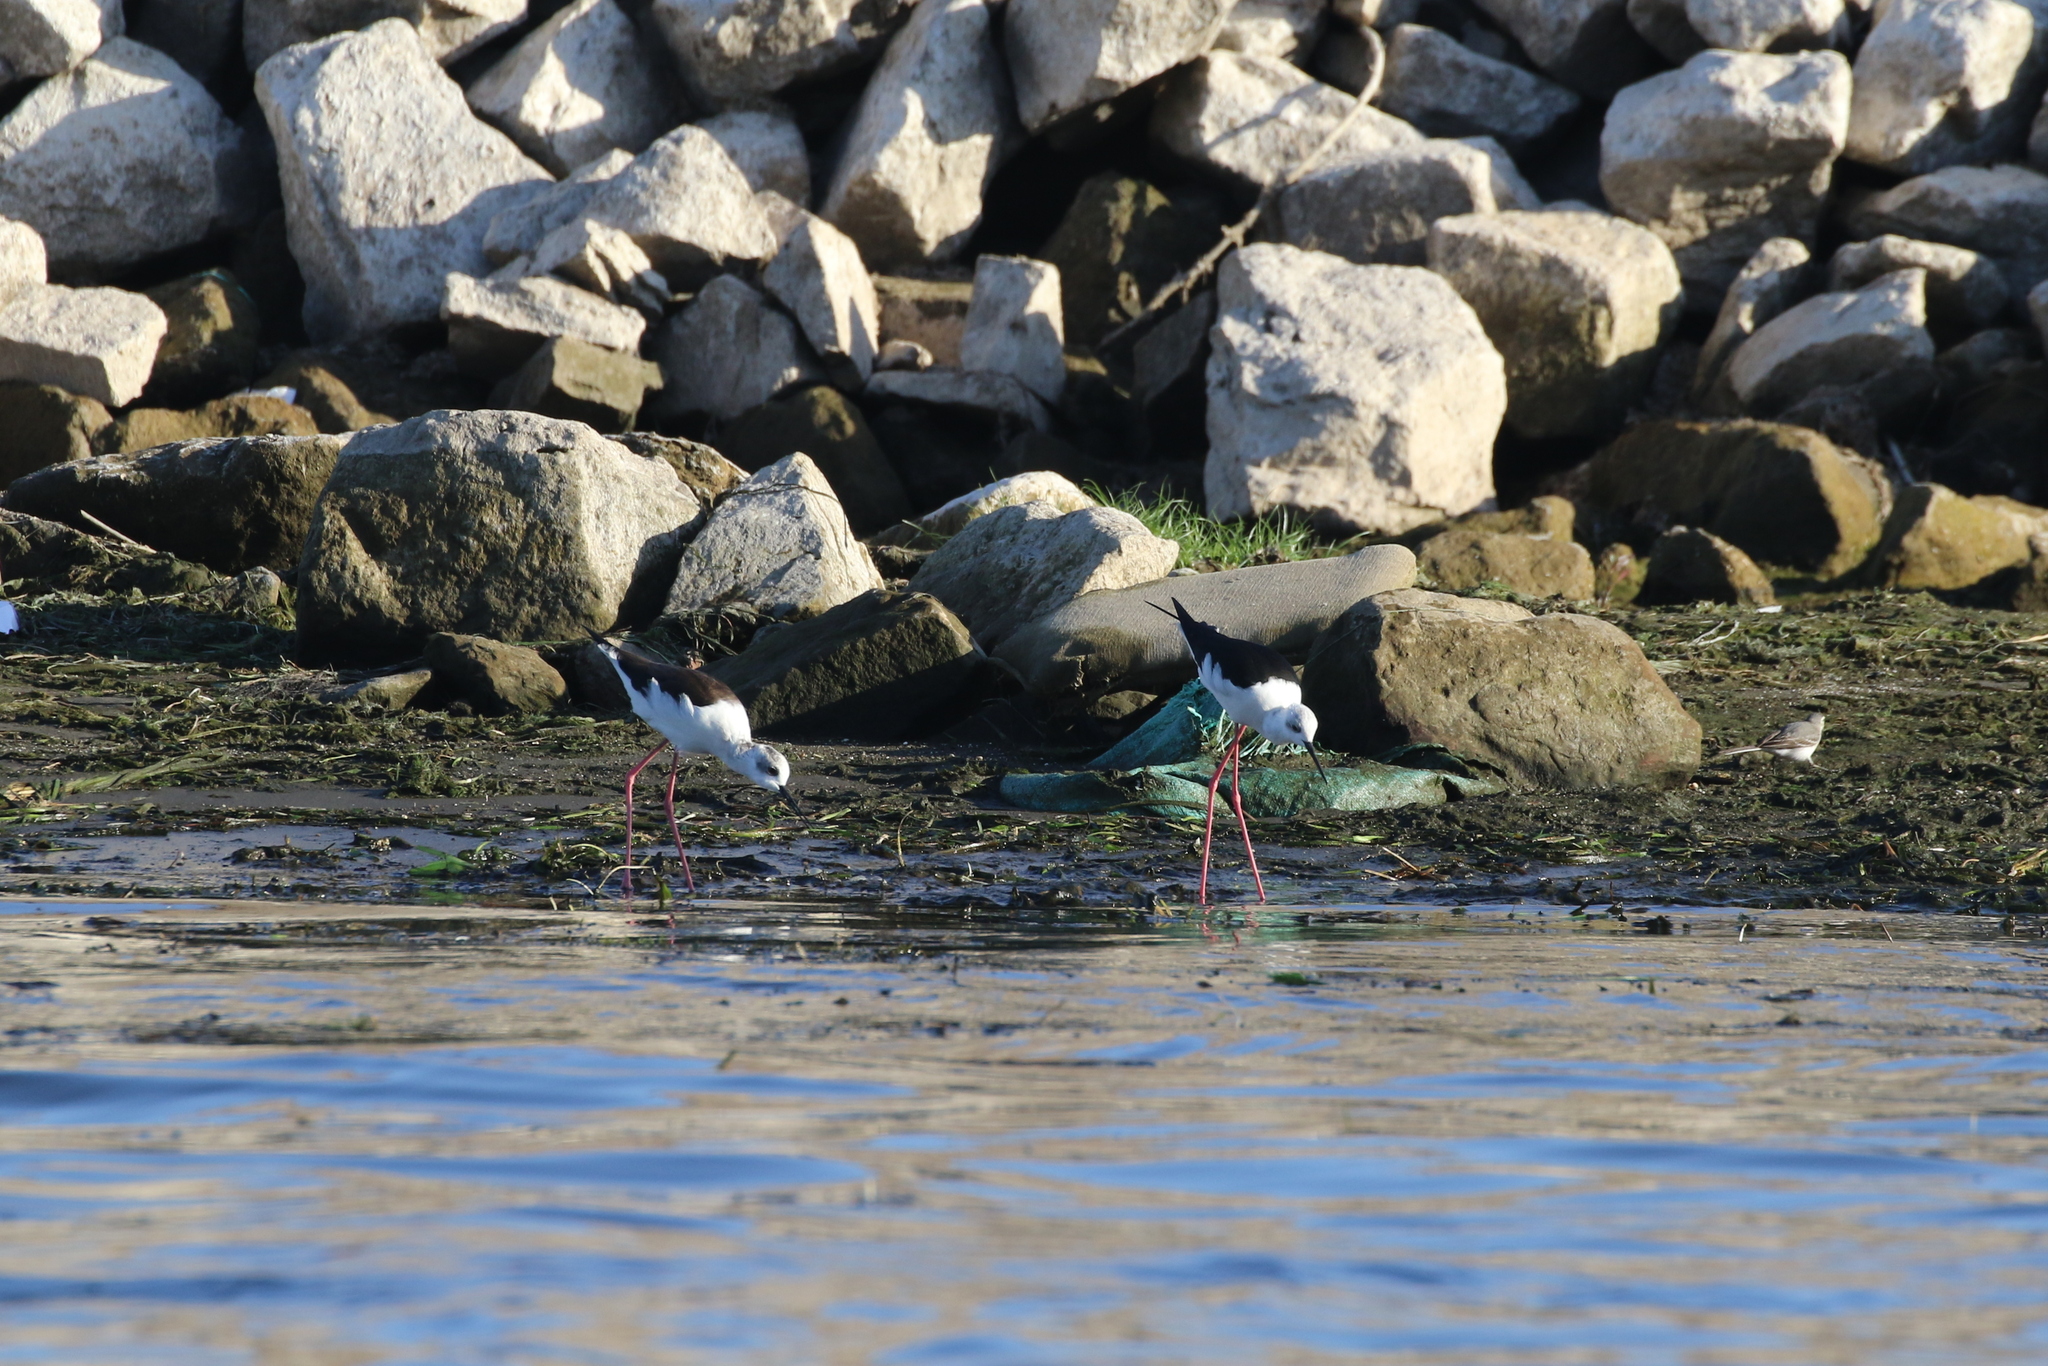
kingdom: Animalia
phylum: Chordata
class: Aves
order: Charadriiformes
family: Recurvirostridae
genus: Himantopus
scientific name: Himantopus himantopus
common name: Black-winged stilt
